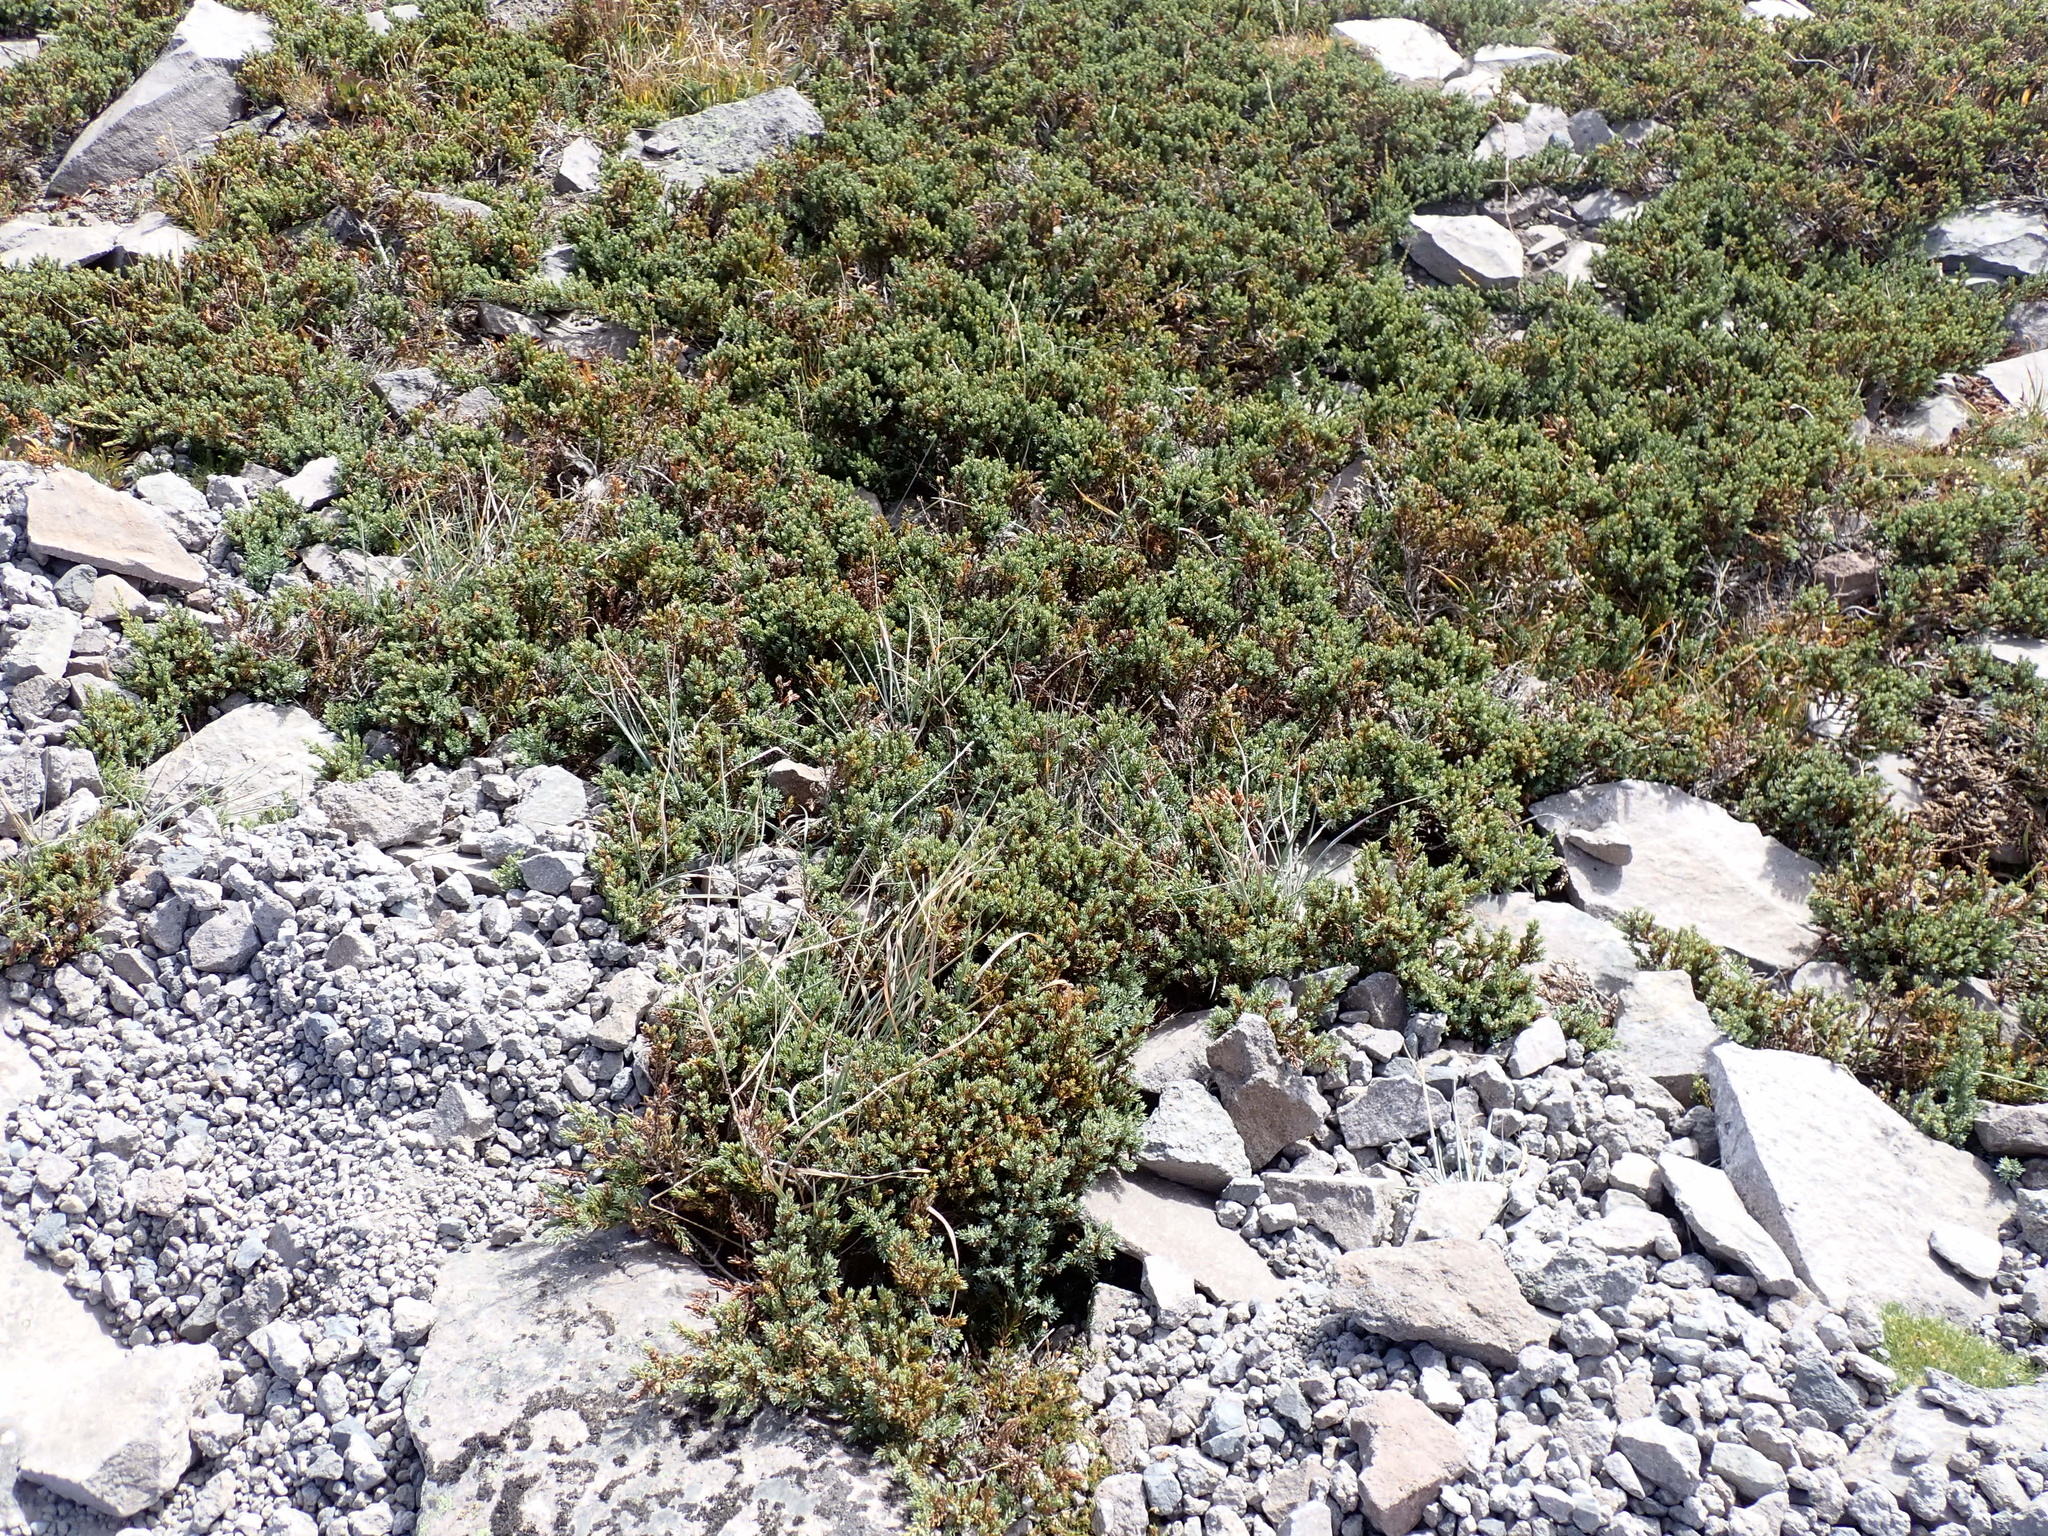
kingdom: Plantae
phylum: Tracheophyta
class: Pinopsida
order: Pinales
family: Cupressaceae
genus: Juniperus
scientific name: Juniperus communis
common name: Common juniper
